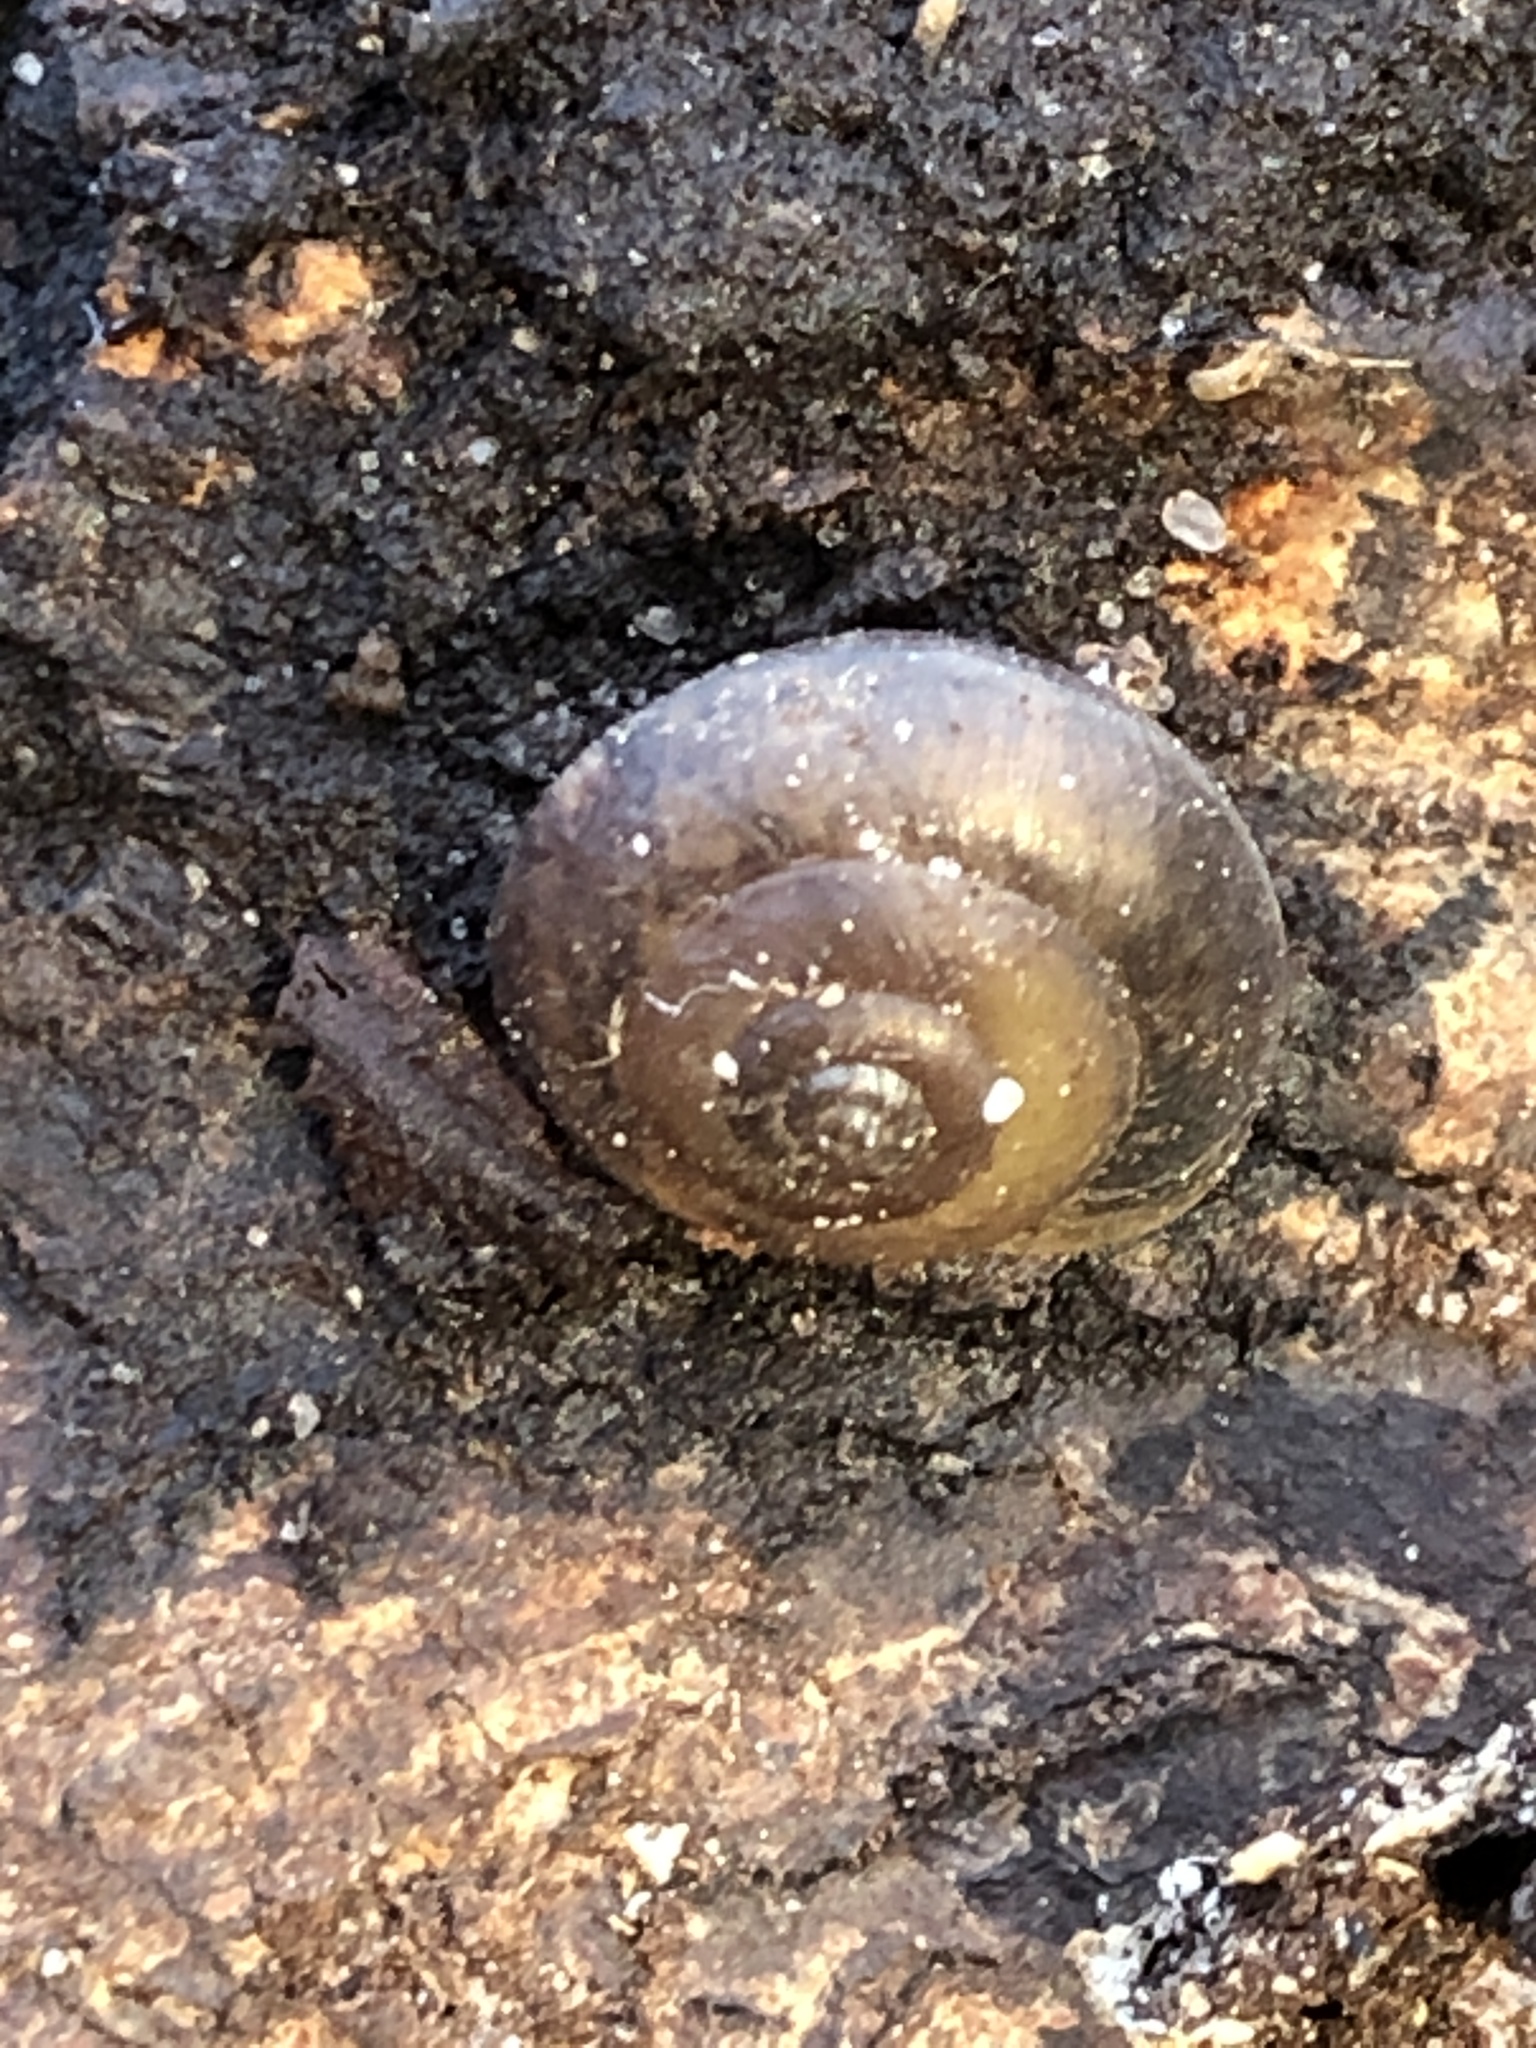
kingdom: Animalia
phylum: Mollusca
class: Gastropoda
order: Stylommatophora
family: Hygromiidae
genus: Hygromia
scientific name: Hygromia cinctella
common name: Girdled snail
